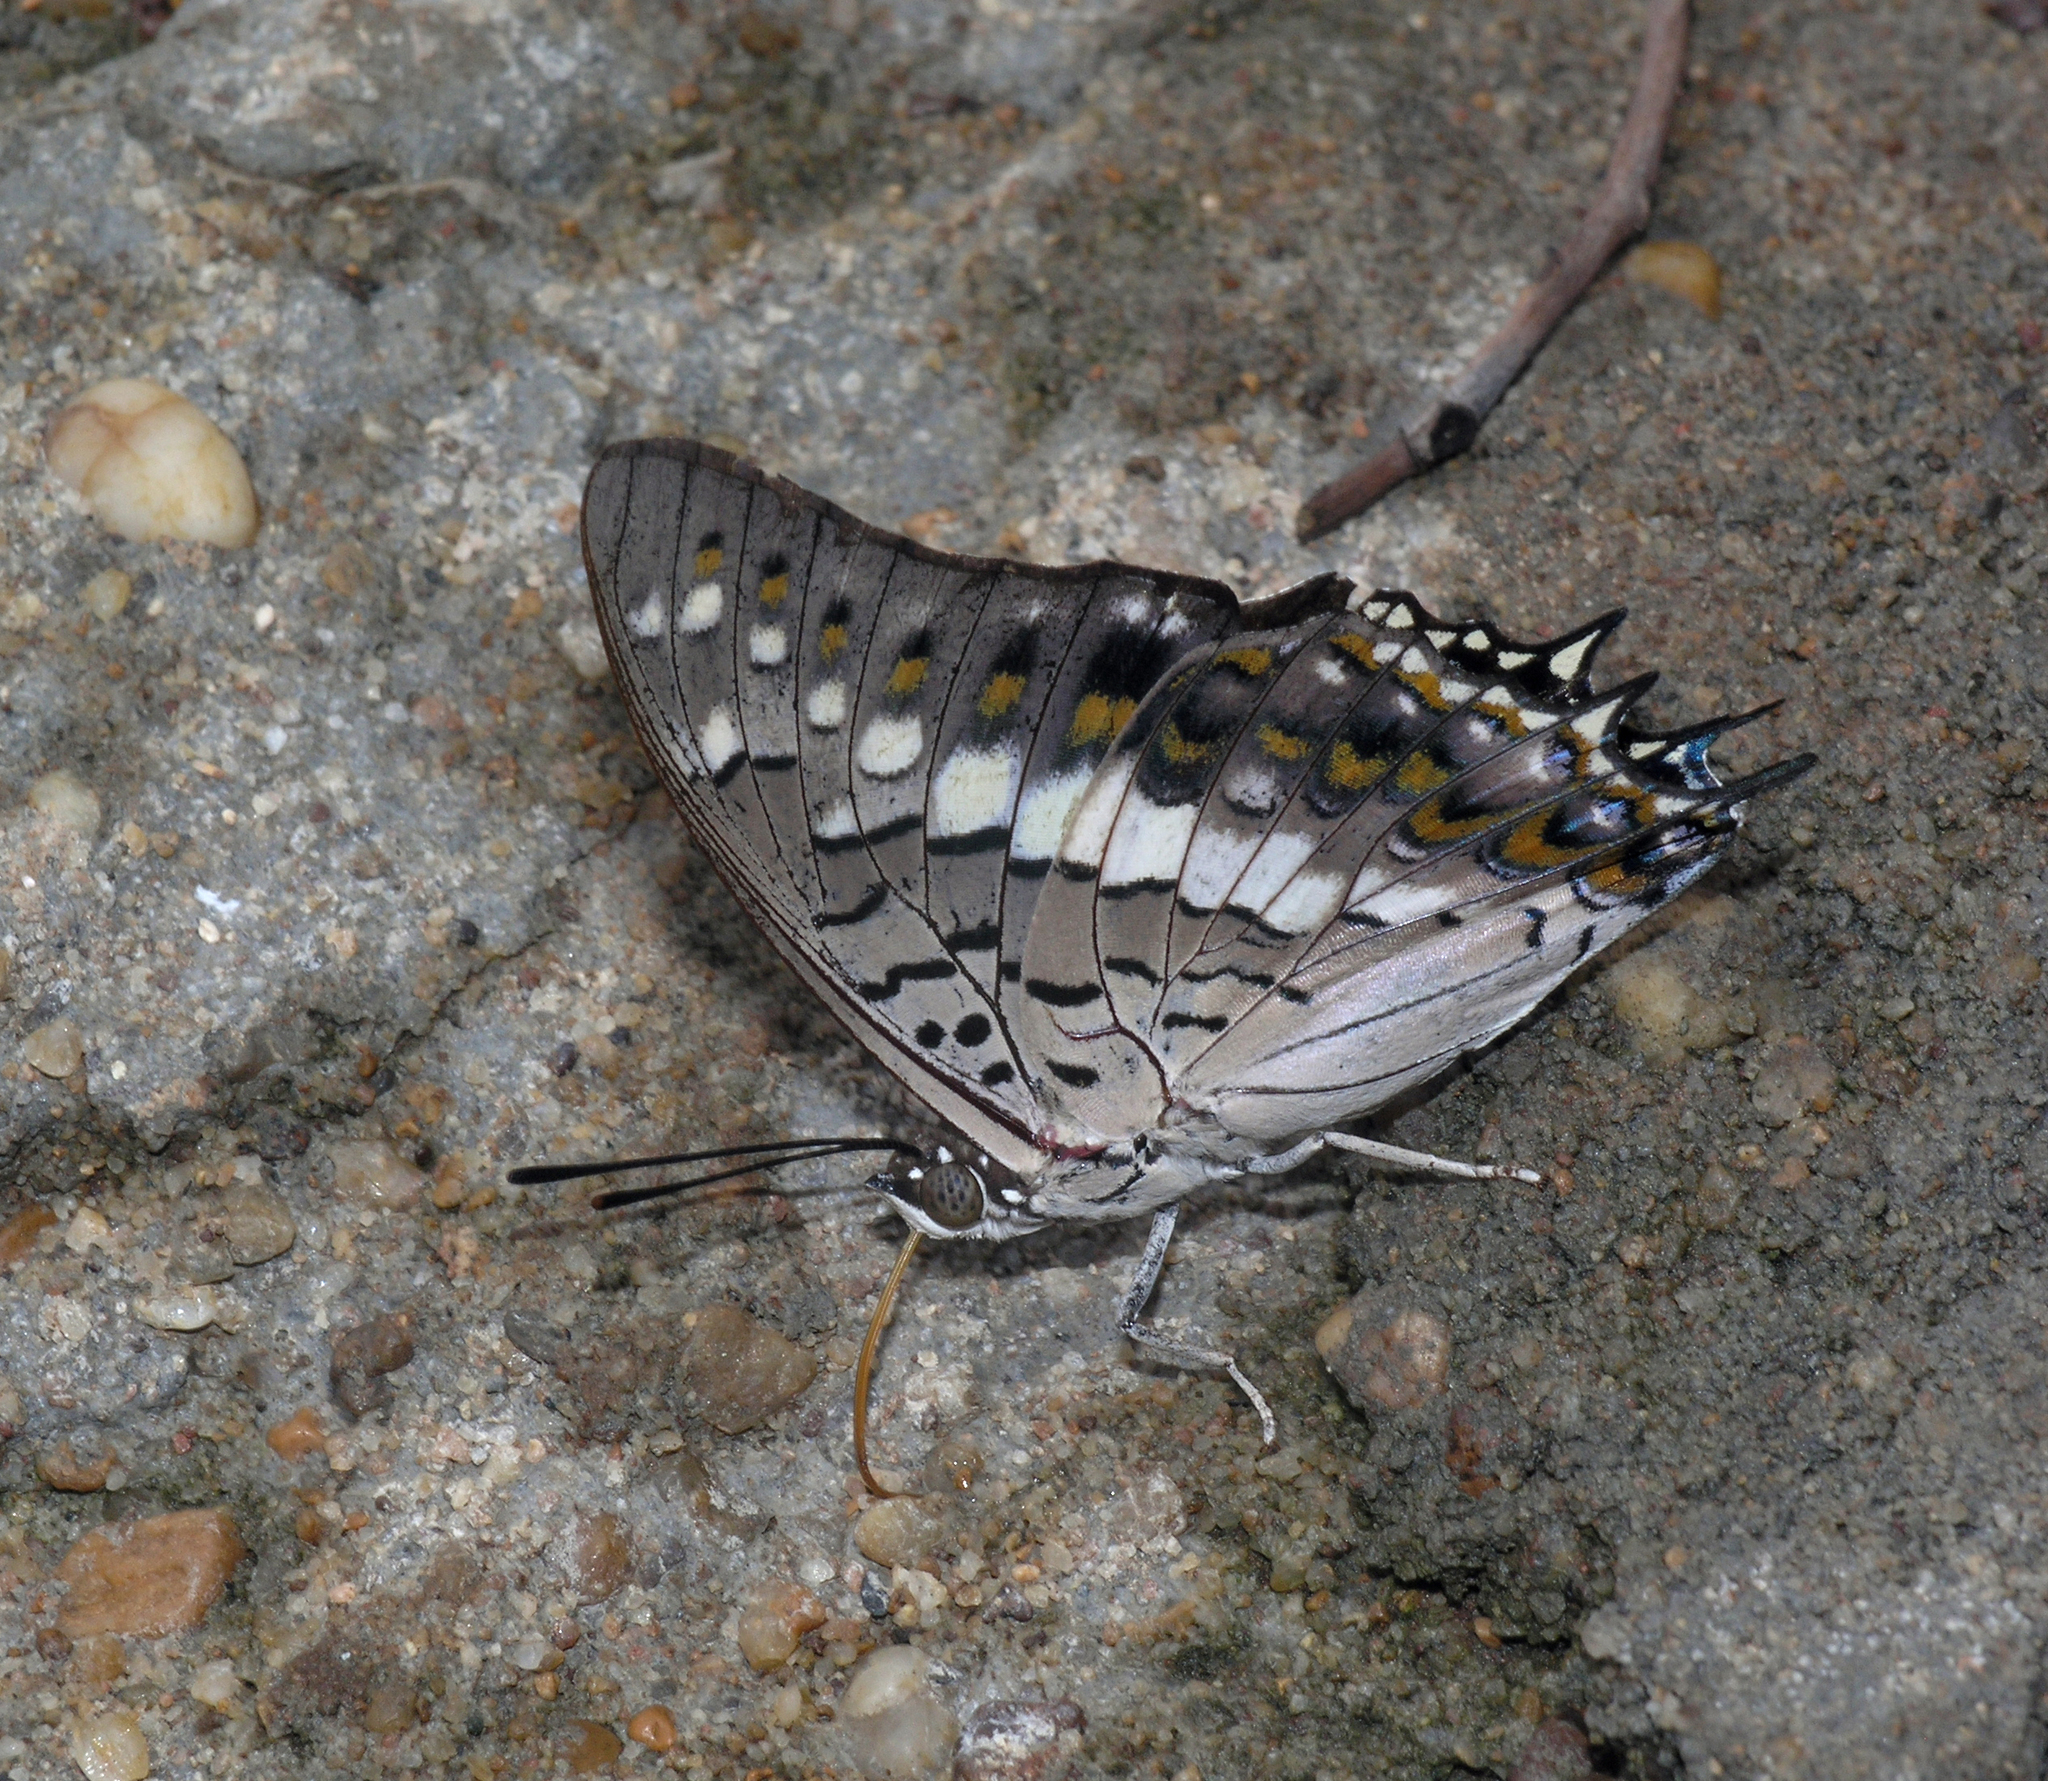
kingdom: Animalia
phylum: Arthropoda
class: Insecta
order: Lepidoptera
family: Nymphalidae
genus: Charaxes
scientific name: Charaxes solon
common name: Black rajah
